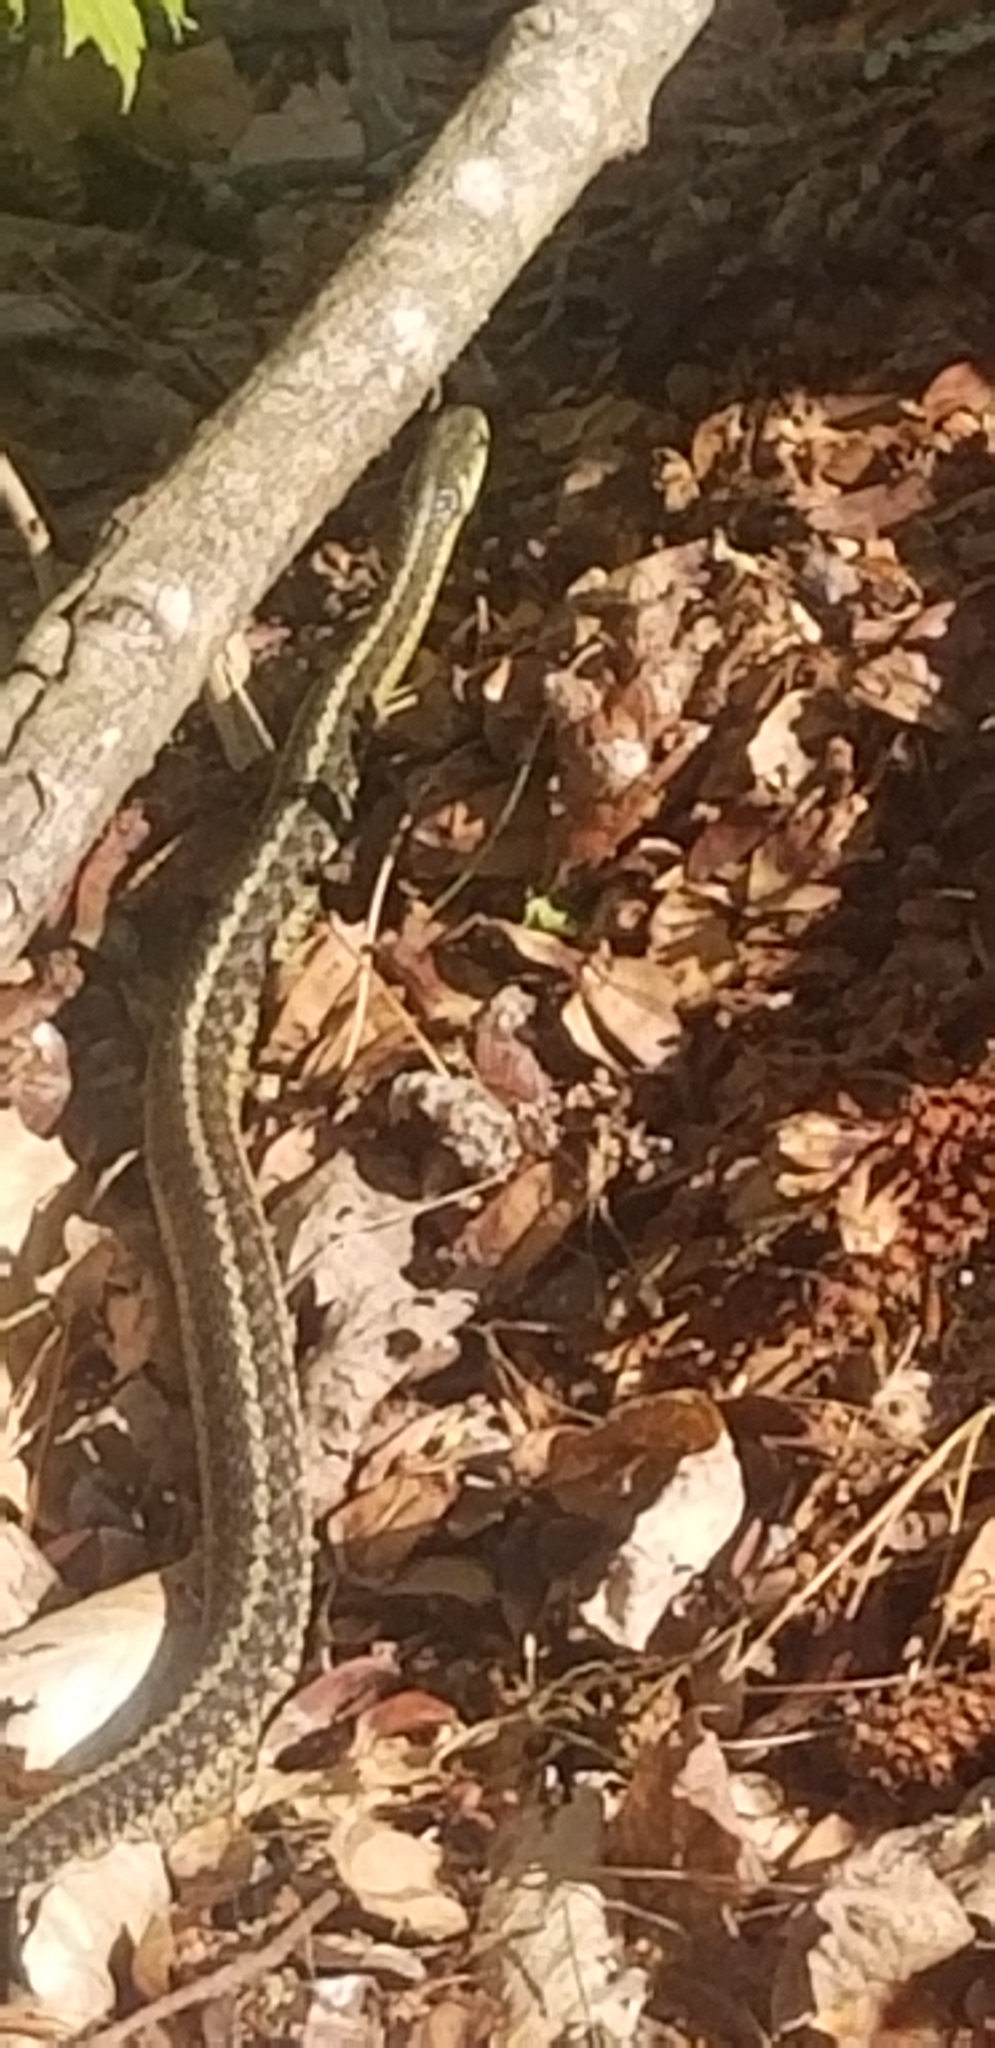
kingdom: Animalia
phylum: Chordata
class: Squamata
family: Colubridae
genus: Thamnophis
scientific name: Thamnophis sirtalis
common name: Common garter snake
